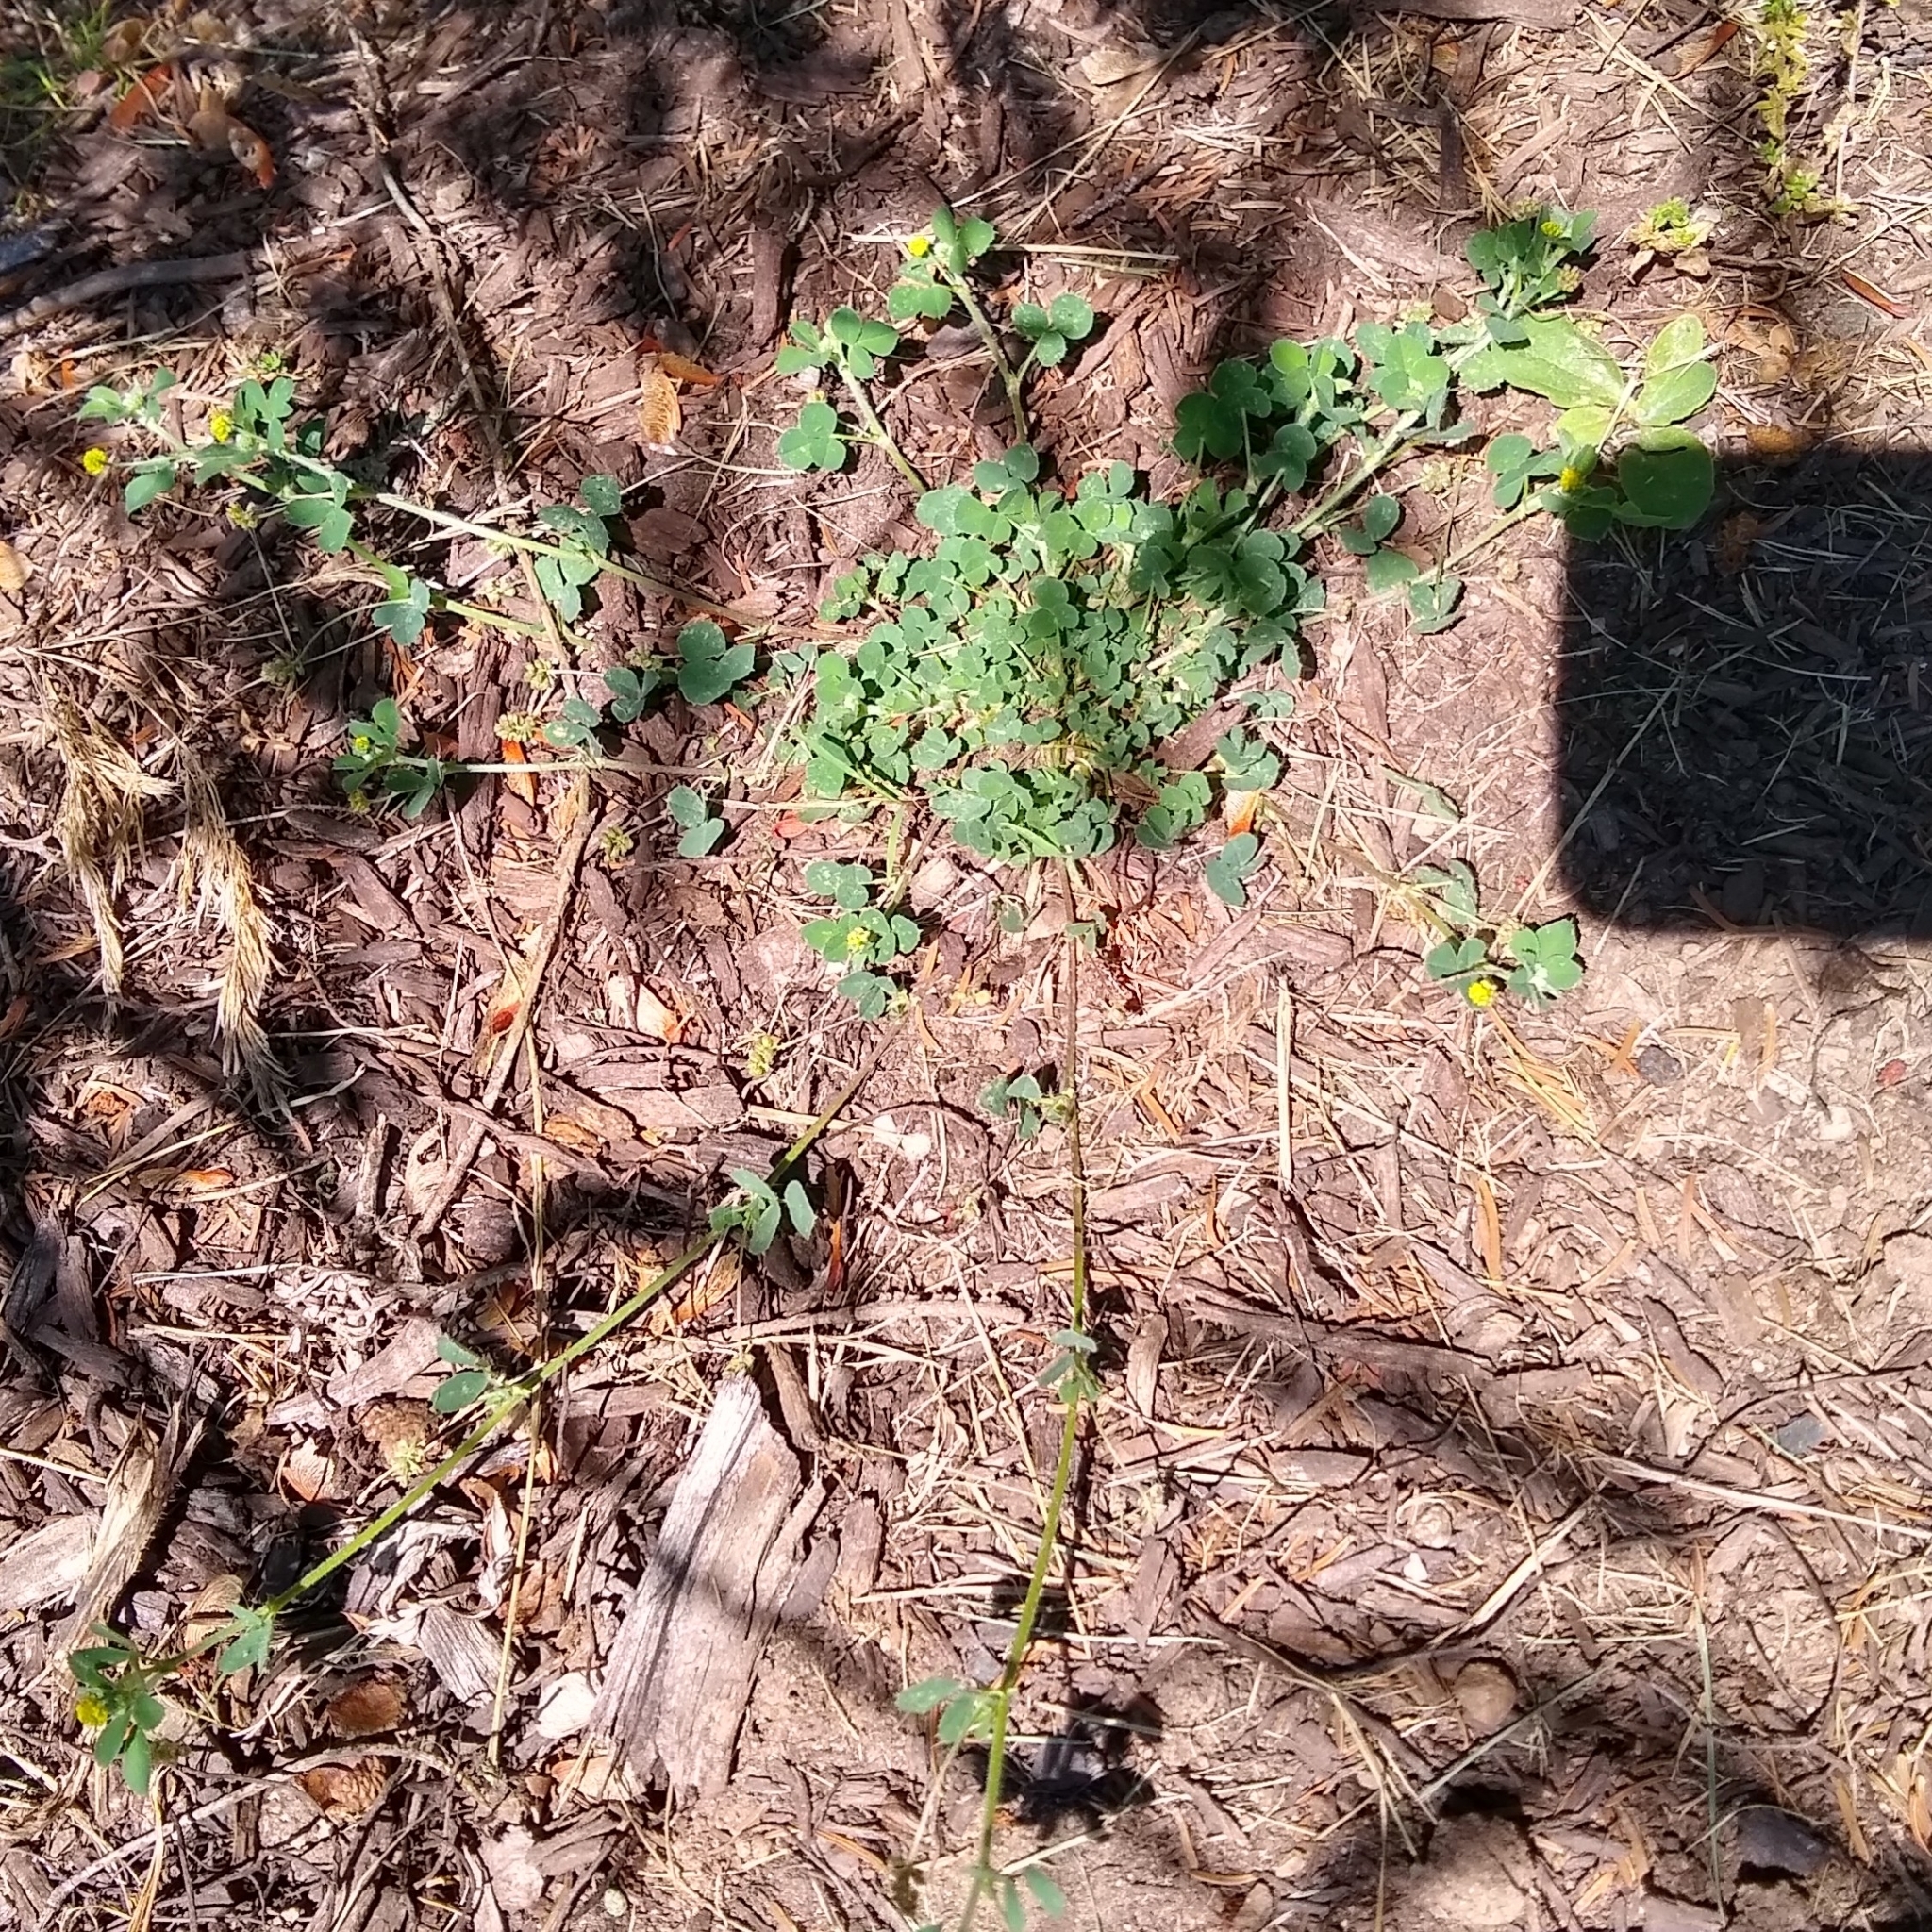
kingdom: Plantae
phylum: Tracheophyta
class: Magnoliopsida
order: Fabales
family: Fabaceae
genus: Medicago
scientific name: Medicago lupulina
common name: Black medick
